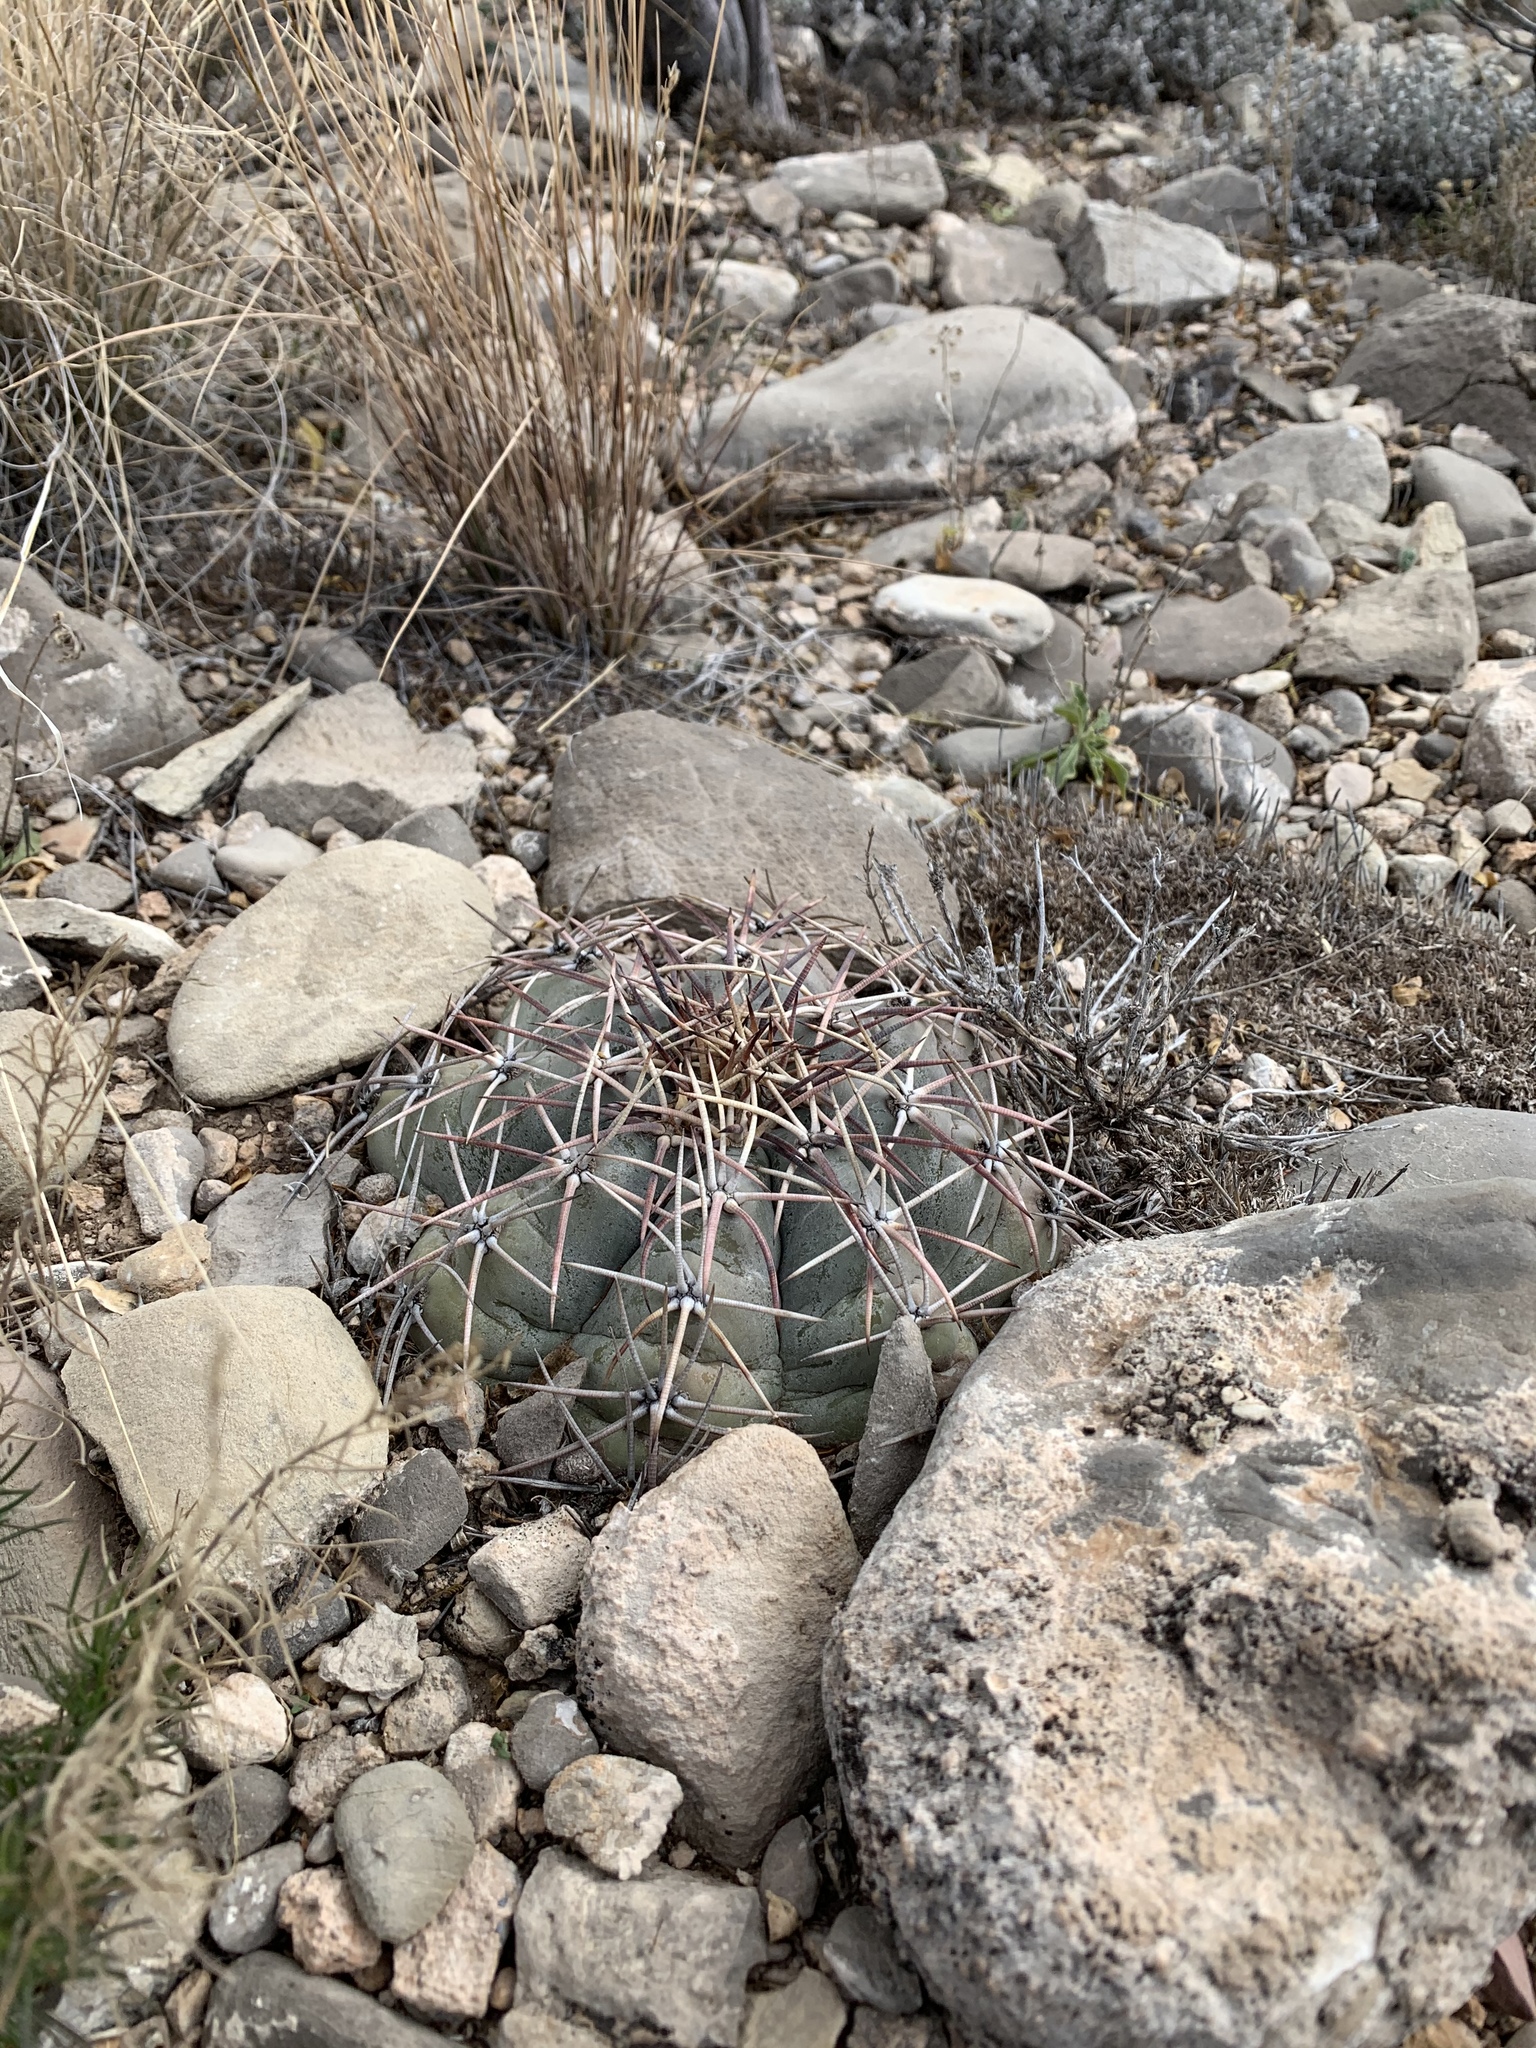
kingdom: Plantae
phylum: Tracheophyta
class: Magnoliopsida
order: Caryophyllales
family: Cactaceae
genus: Echinocactus
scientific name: Echinocactus horizonthalonius
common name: Devilshead
